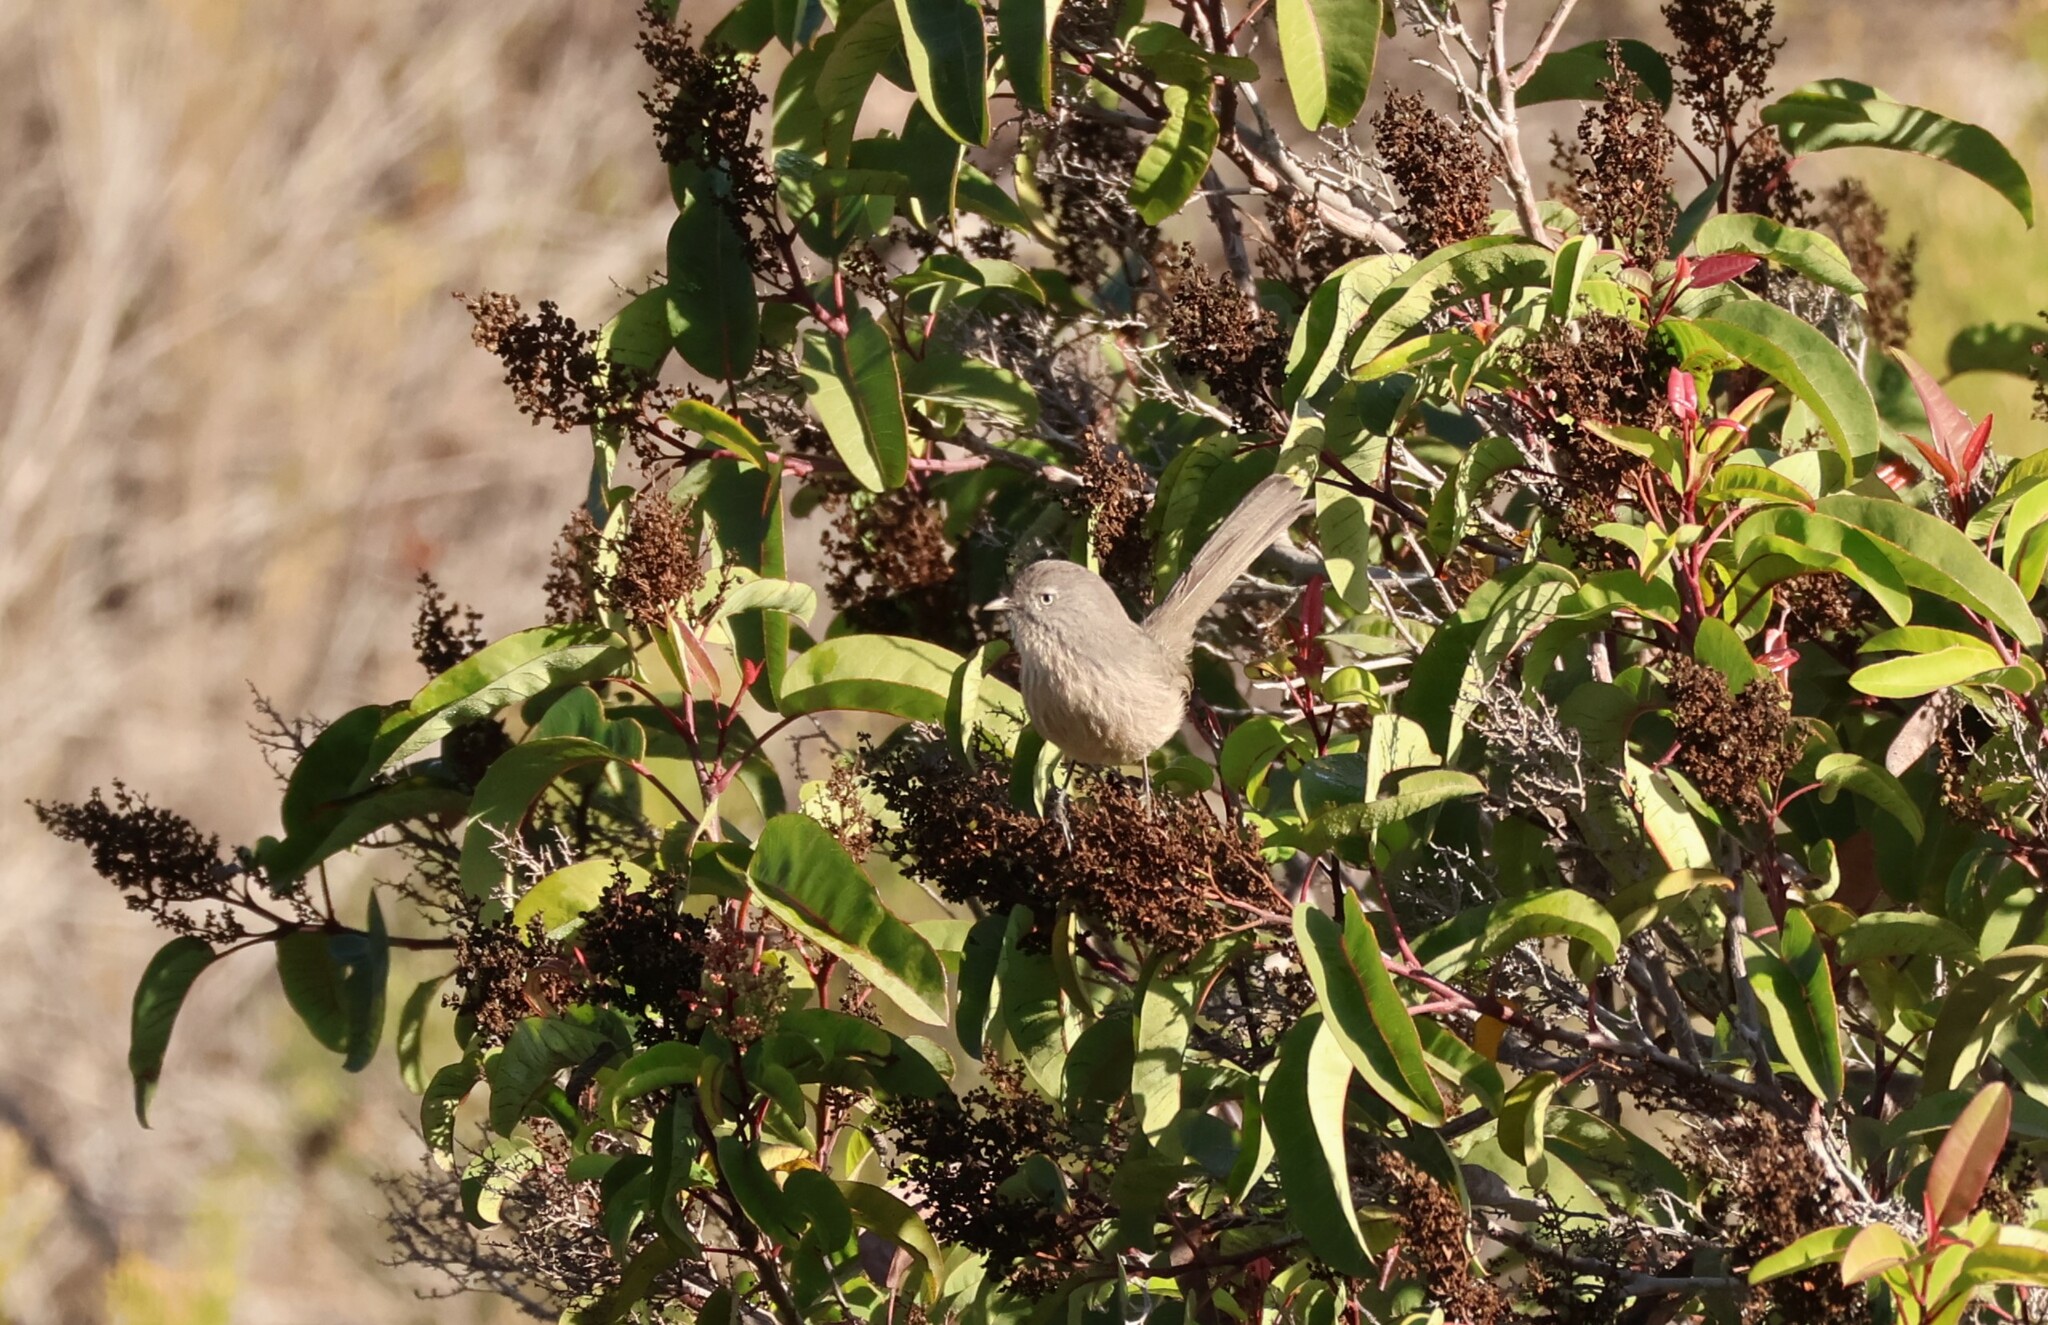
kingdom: Animalia
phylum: Chordata
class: Aves
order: Passeriformes
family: Sylviidae
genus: Chamaea
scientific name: Chamaea fasciata
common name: Wrentit
